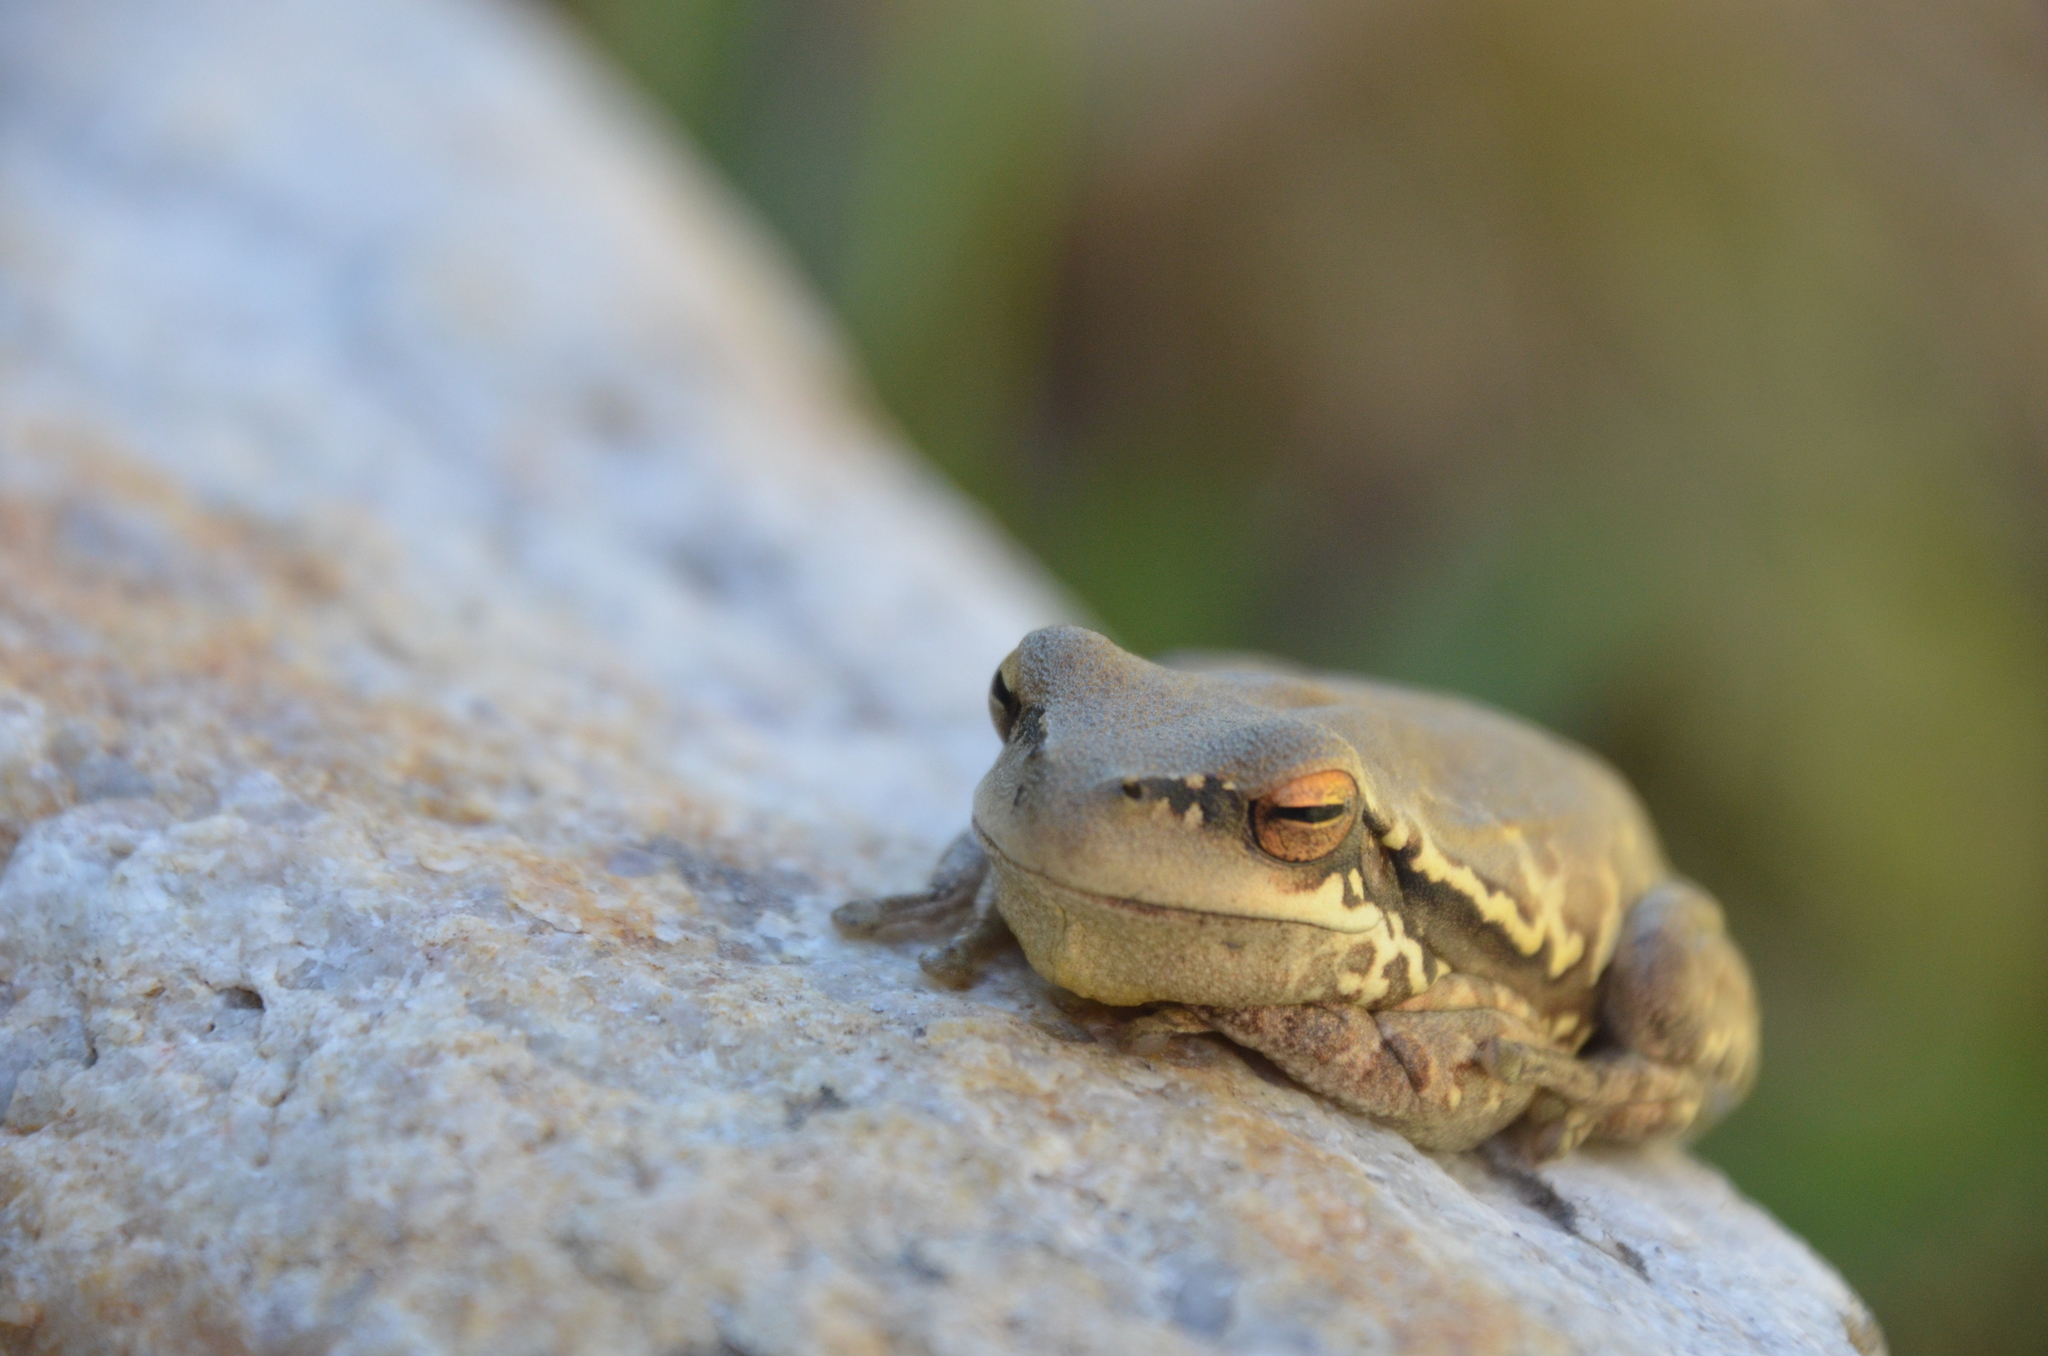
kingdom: Animalia
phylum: Chordata
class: Amphibia
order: Anura
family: Hylidae
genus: Boana
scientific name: Boana pulchella
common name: Montevideo treefrog
